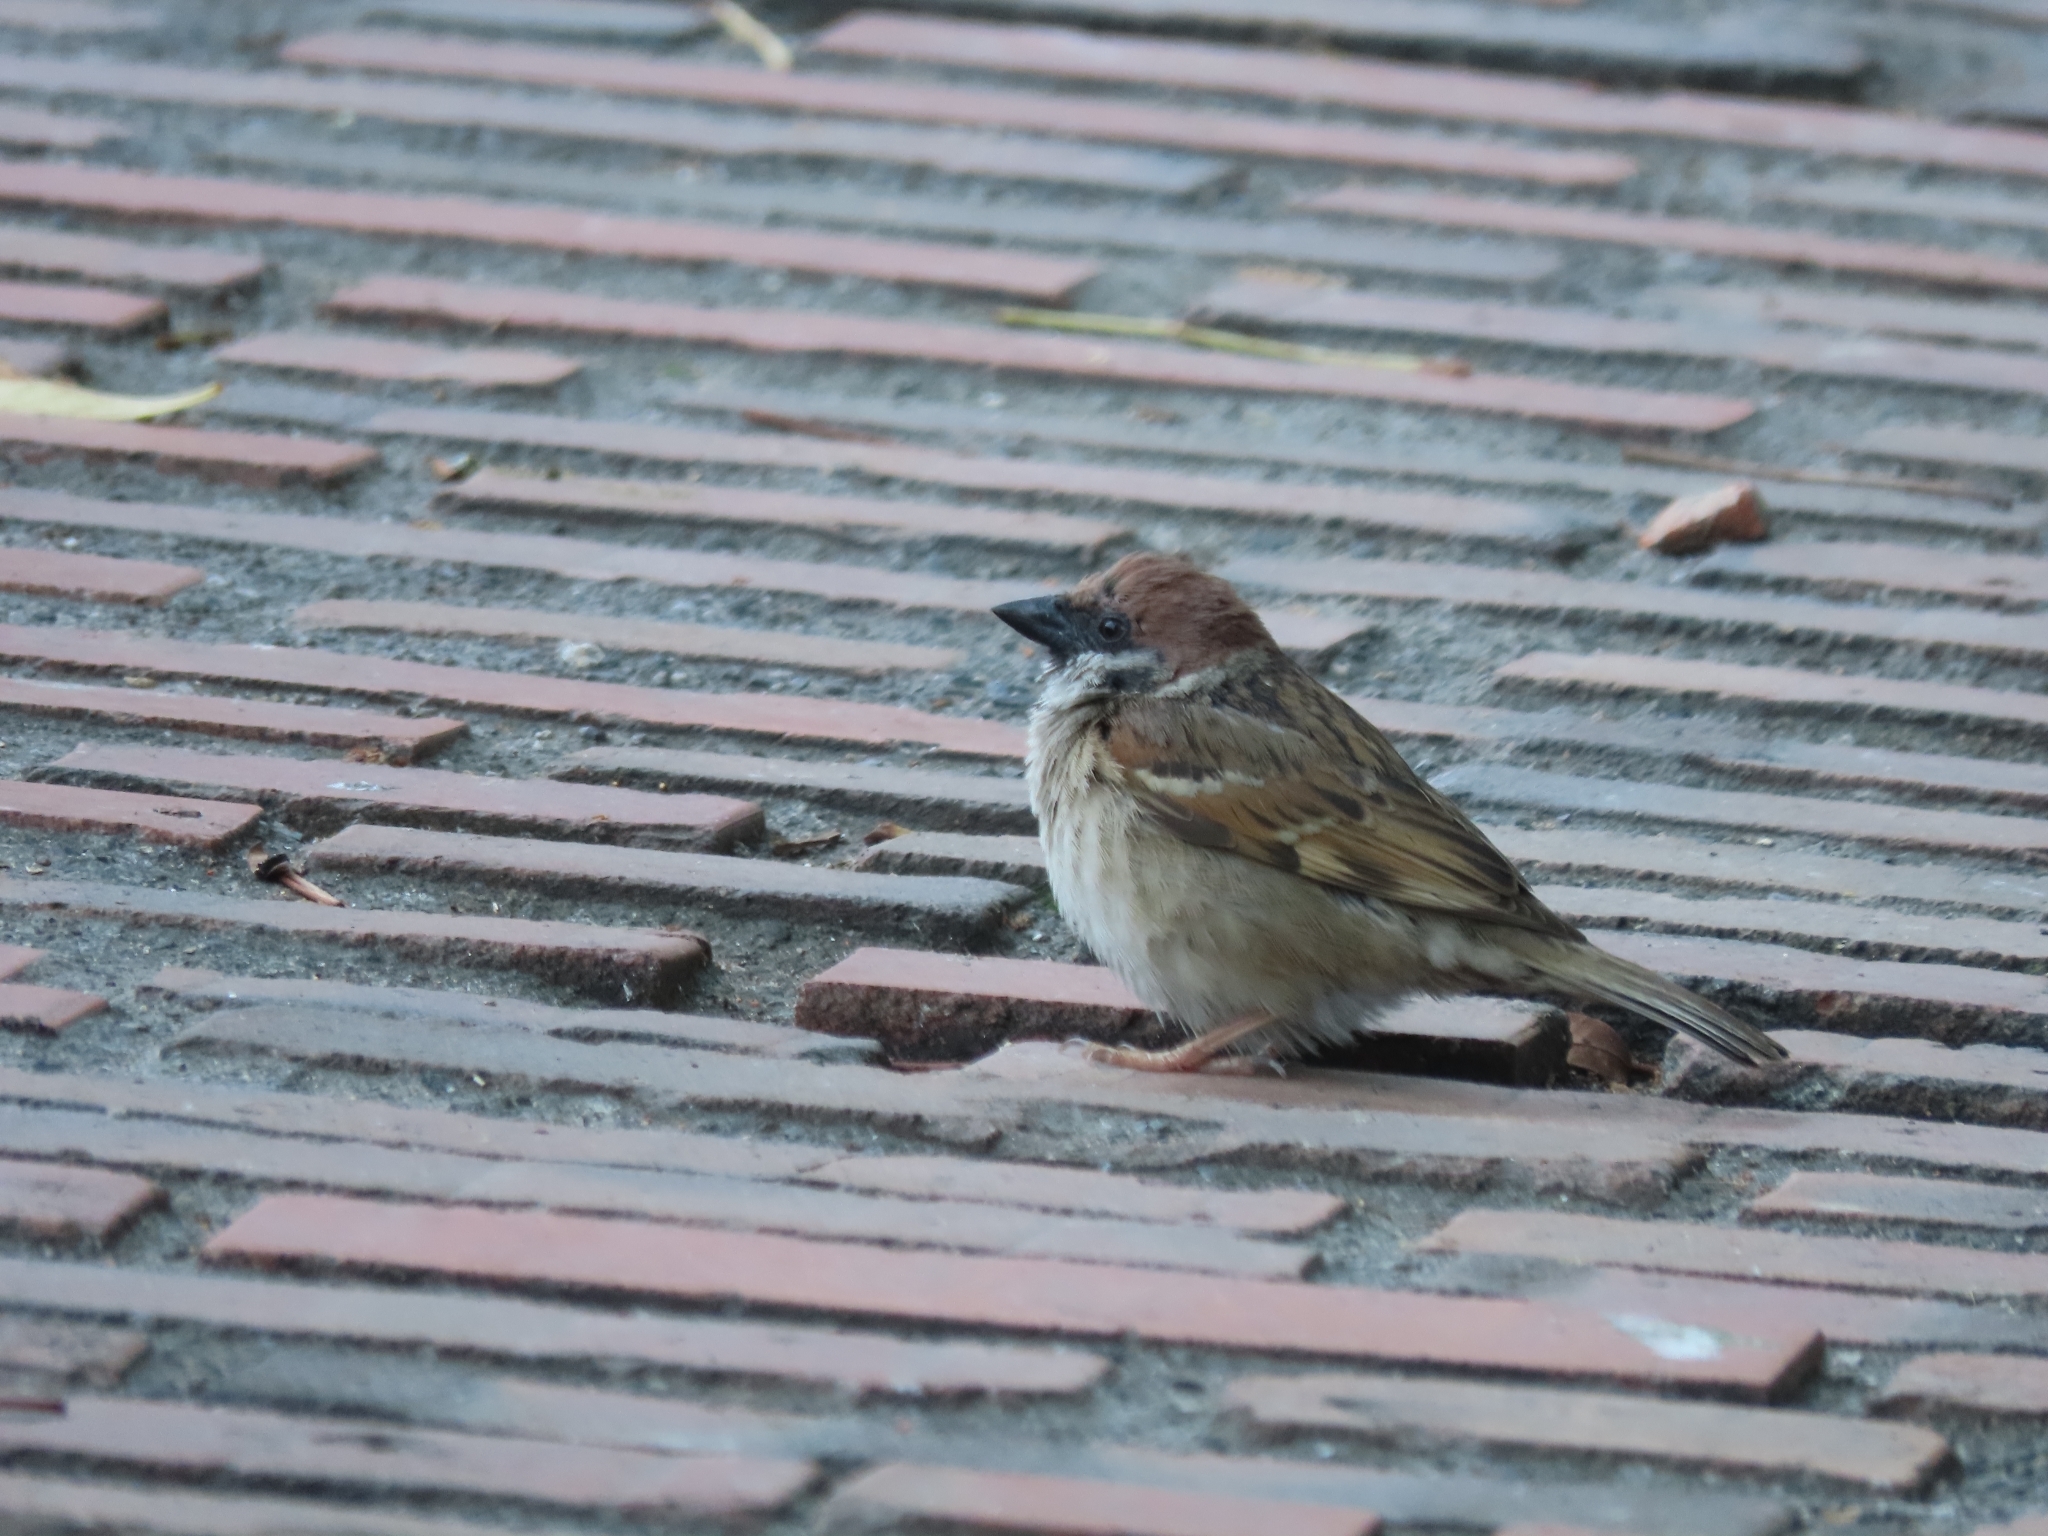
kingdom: Animalia
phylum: Chordata
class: Aves
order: Passeriformes
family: Passeridae
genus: Passer
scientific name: Passer montanus
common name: Eurasian tree sparrow
